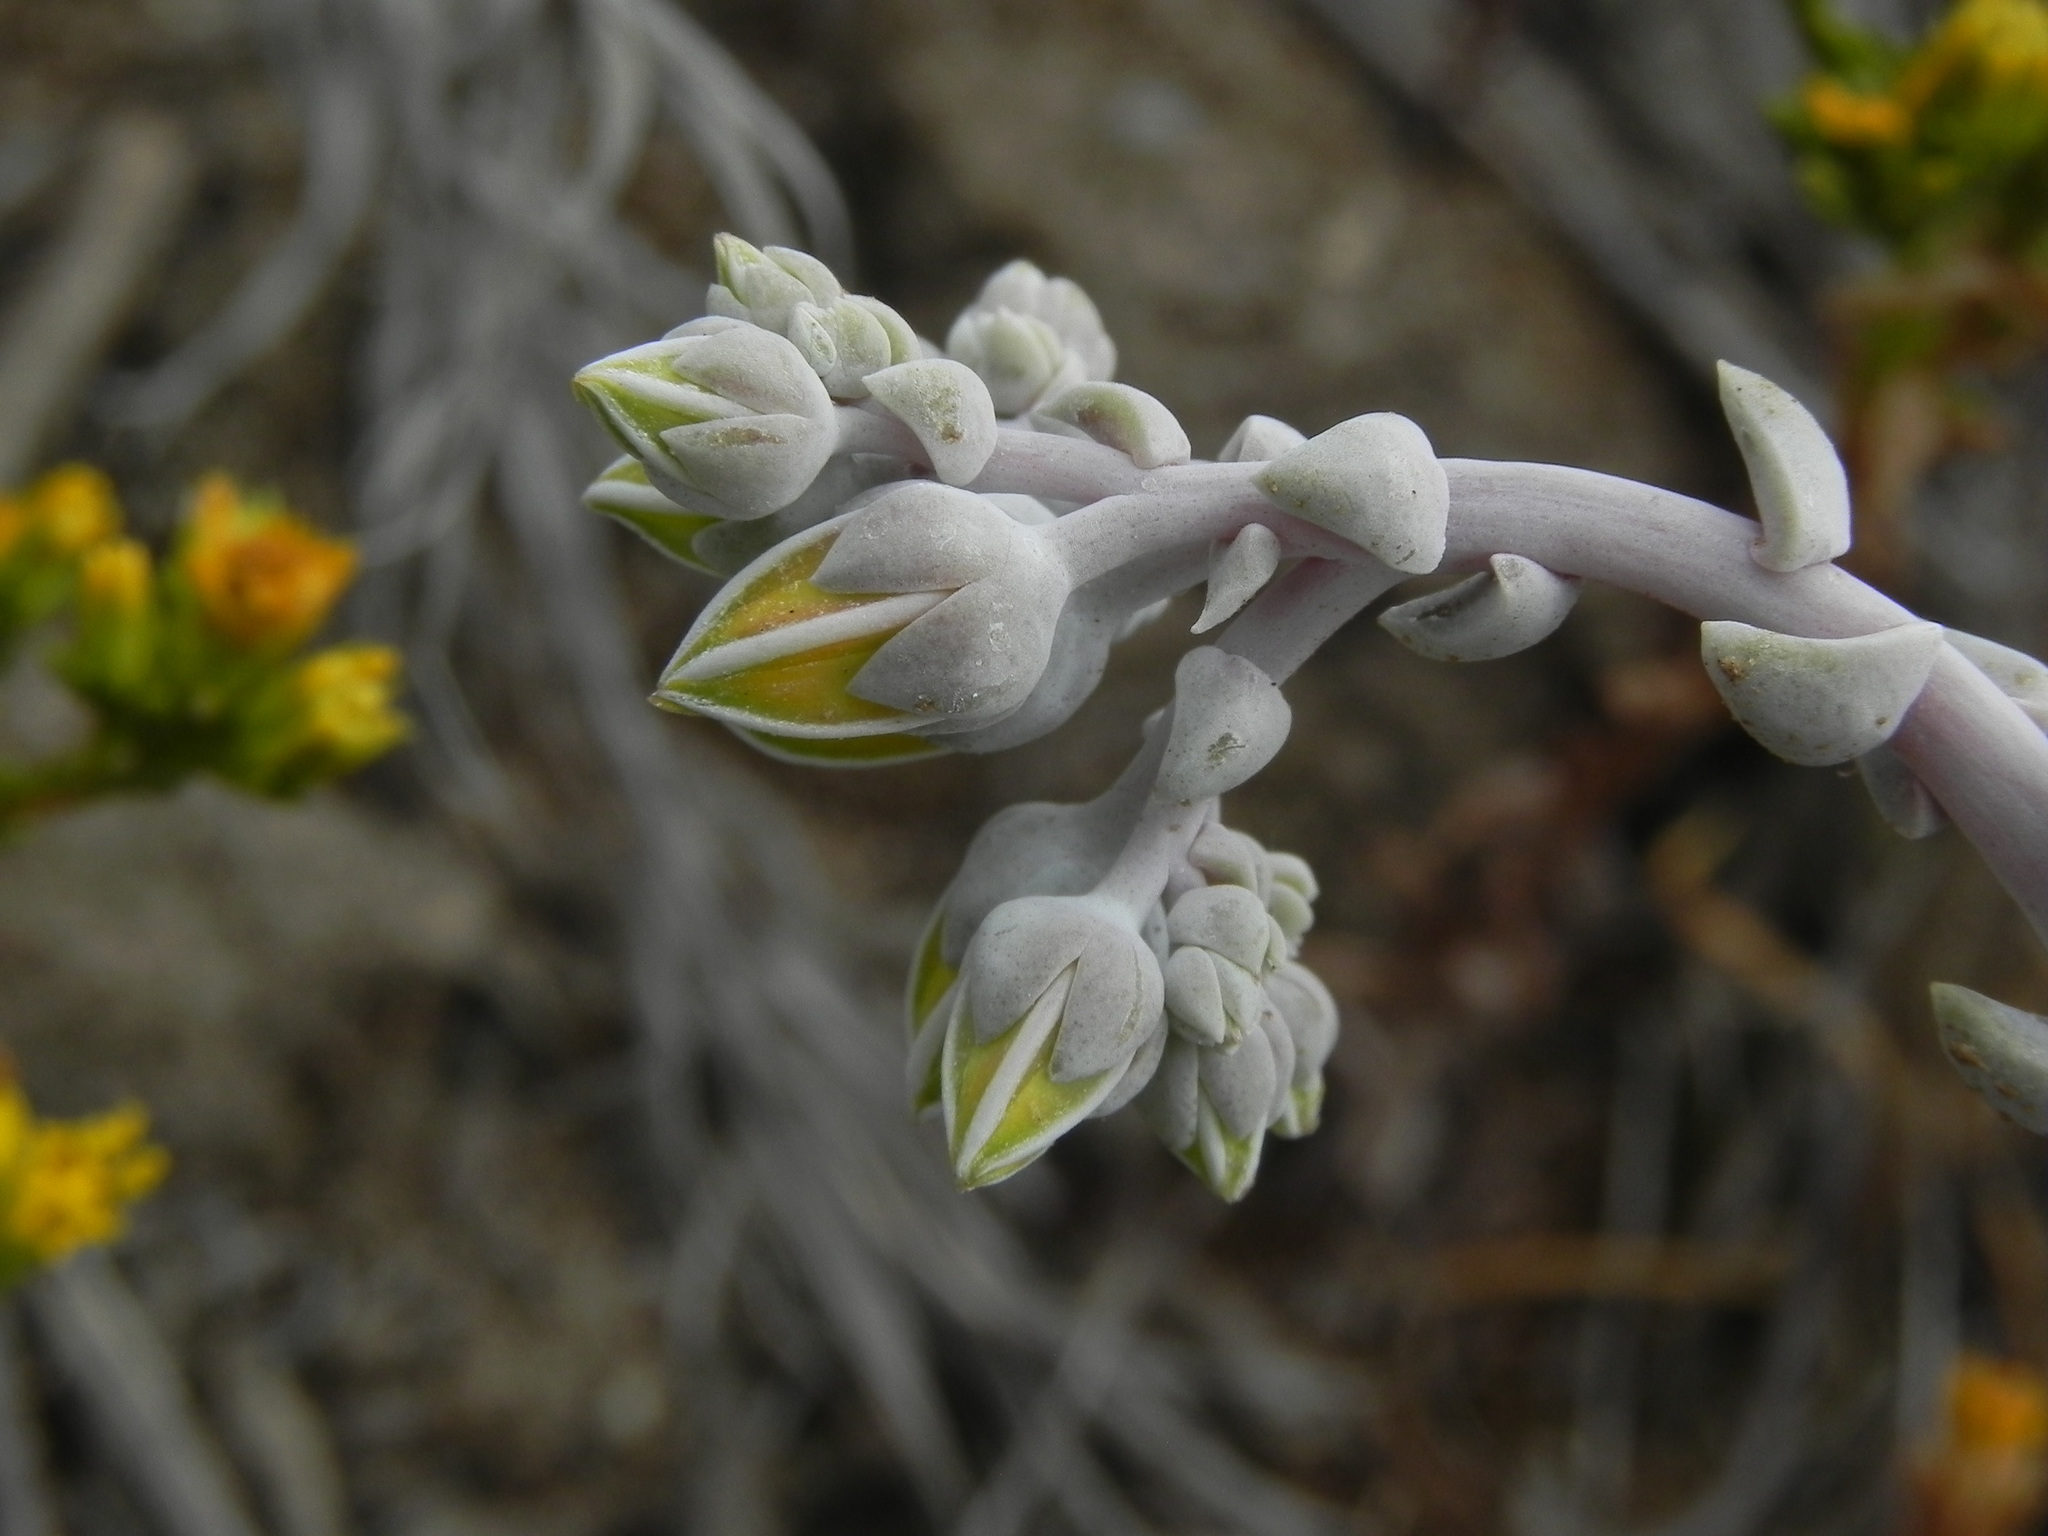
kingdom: Plantae
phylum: Tracheophyta
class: Magnoliopsida
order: Saxifragales
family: Crassulaceae
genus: Dudleya
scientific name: Dudleya caespitosa
